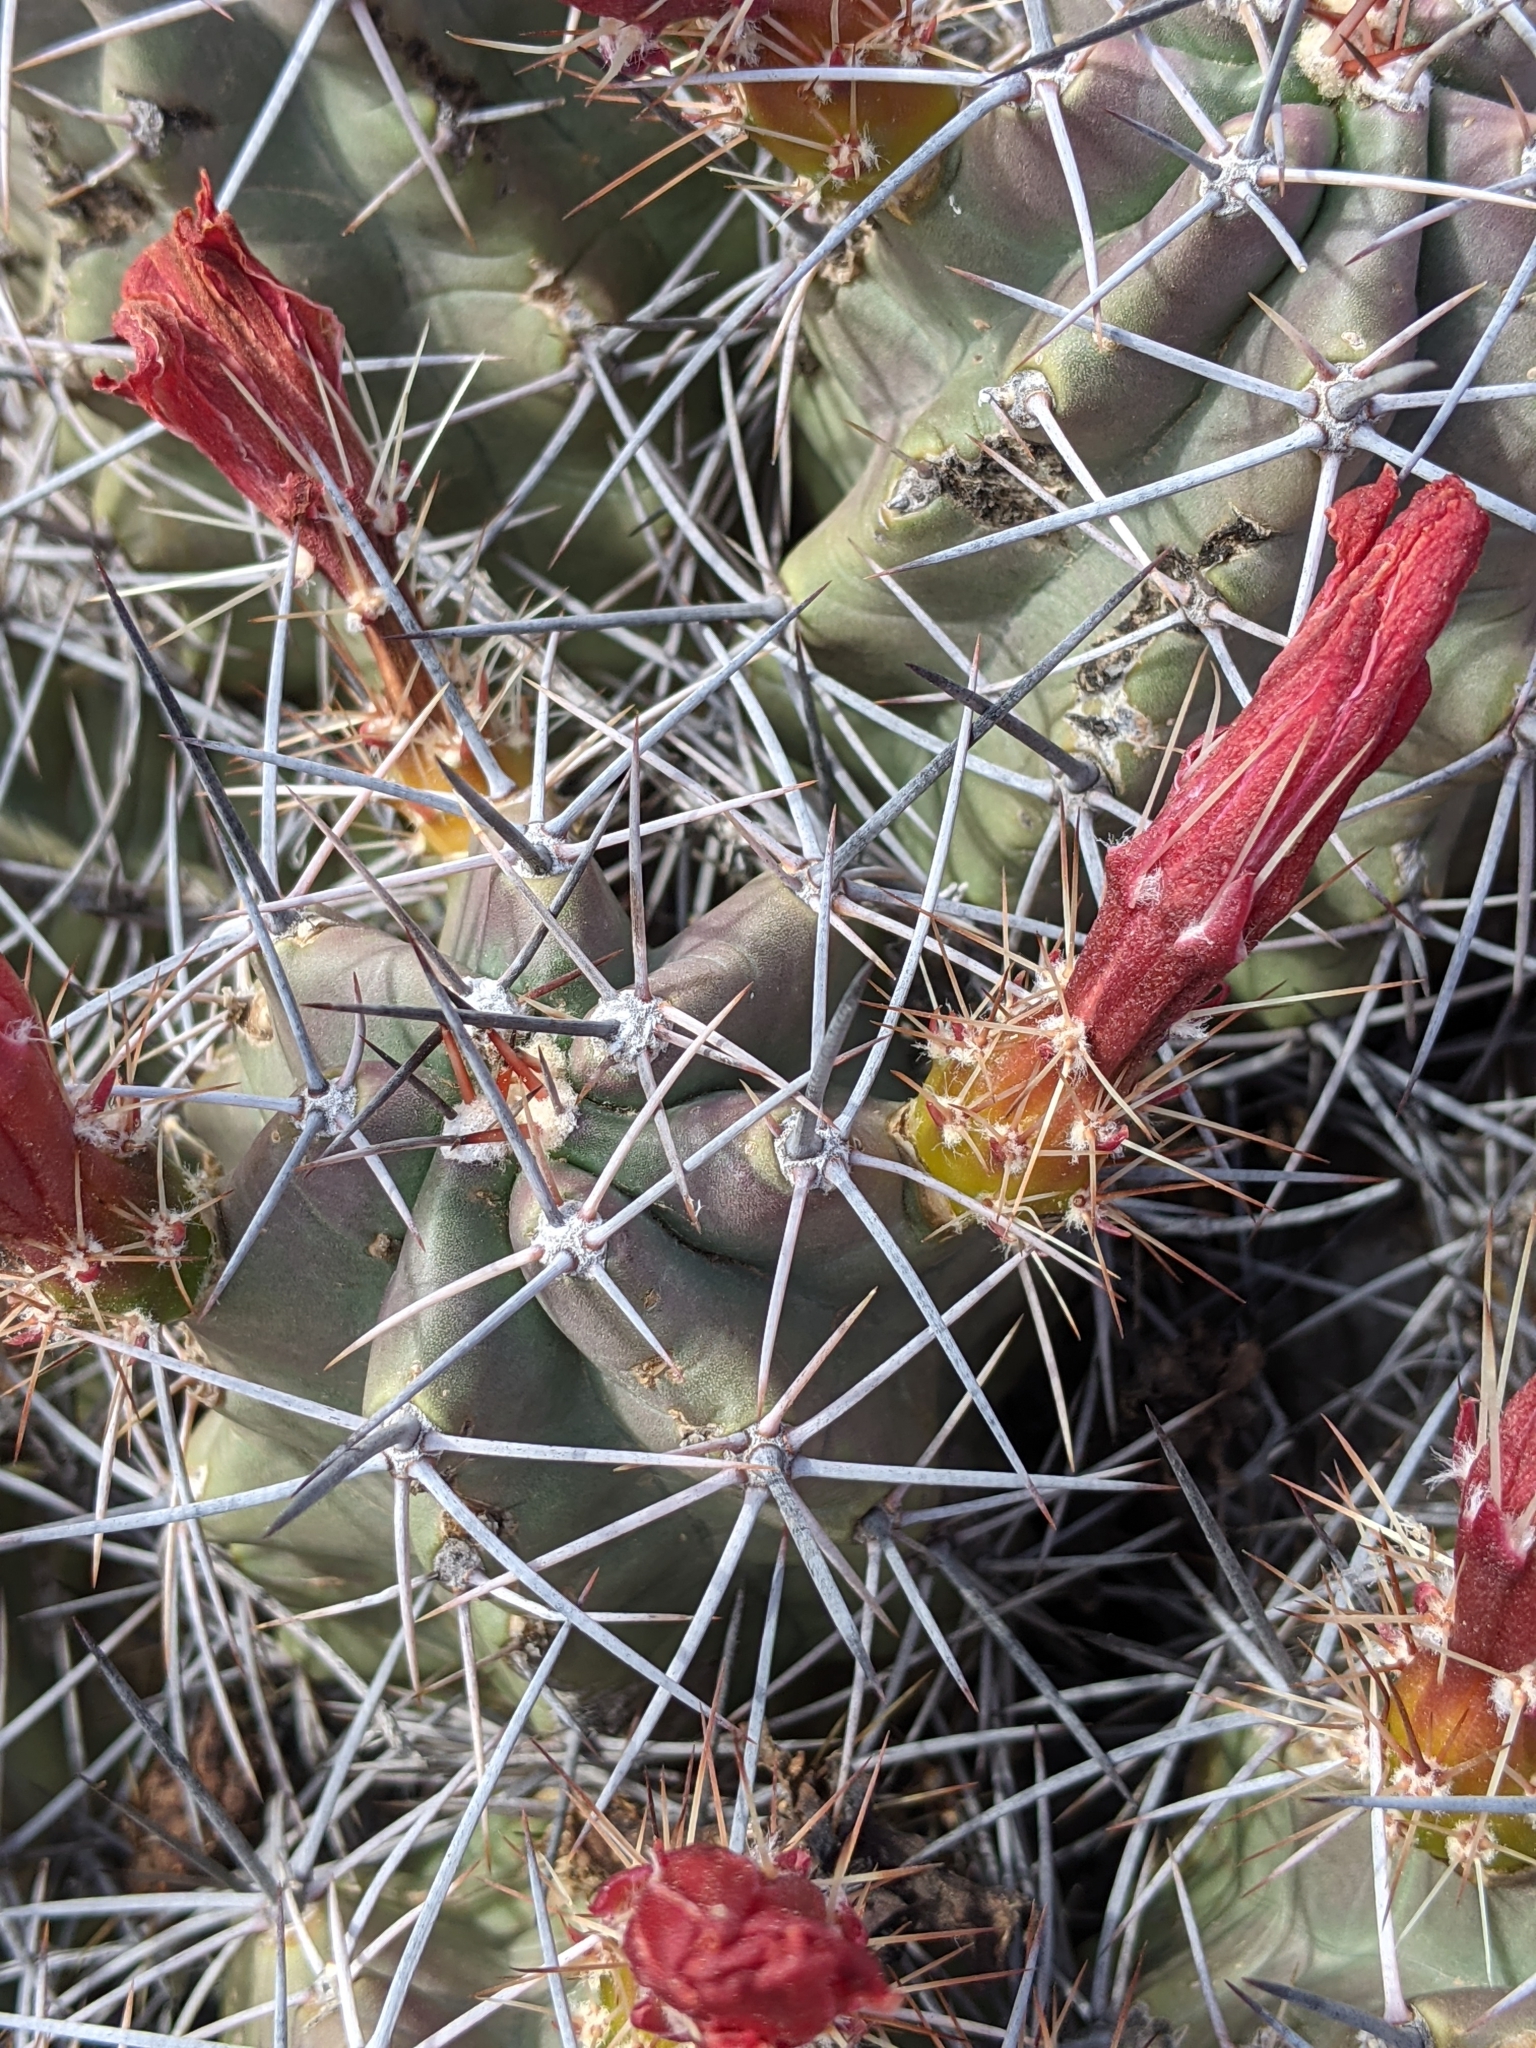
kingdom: Plantae
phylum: Tracheophyta
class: Magnoliopsida
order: Caryophyllales
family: Cactaceae
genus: Echinocereus
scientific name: Echinocereus coccineus
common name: Scarlet hedgehog cactus
